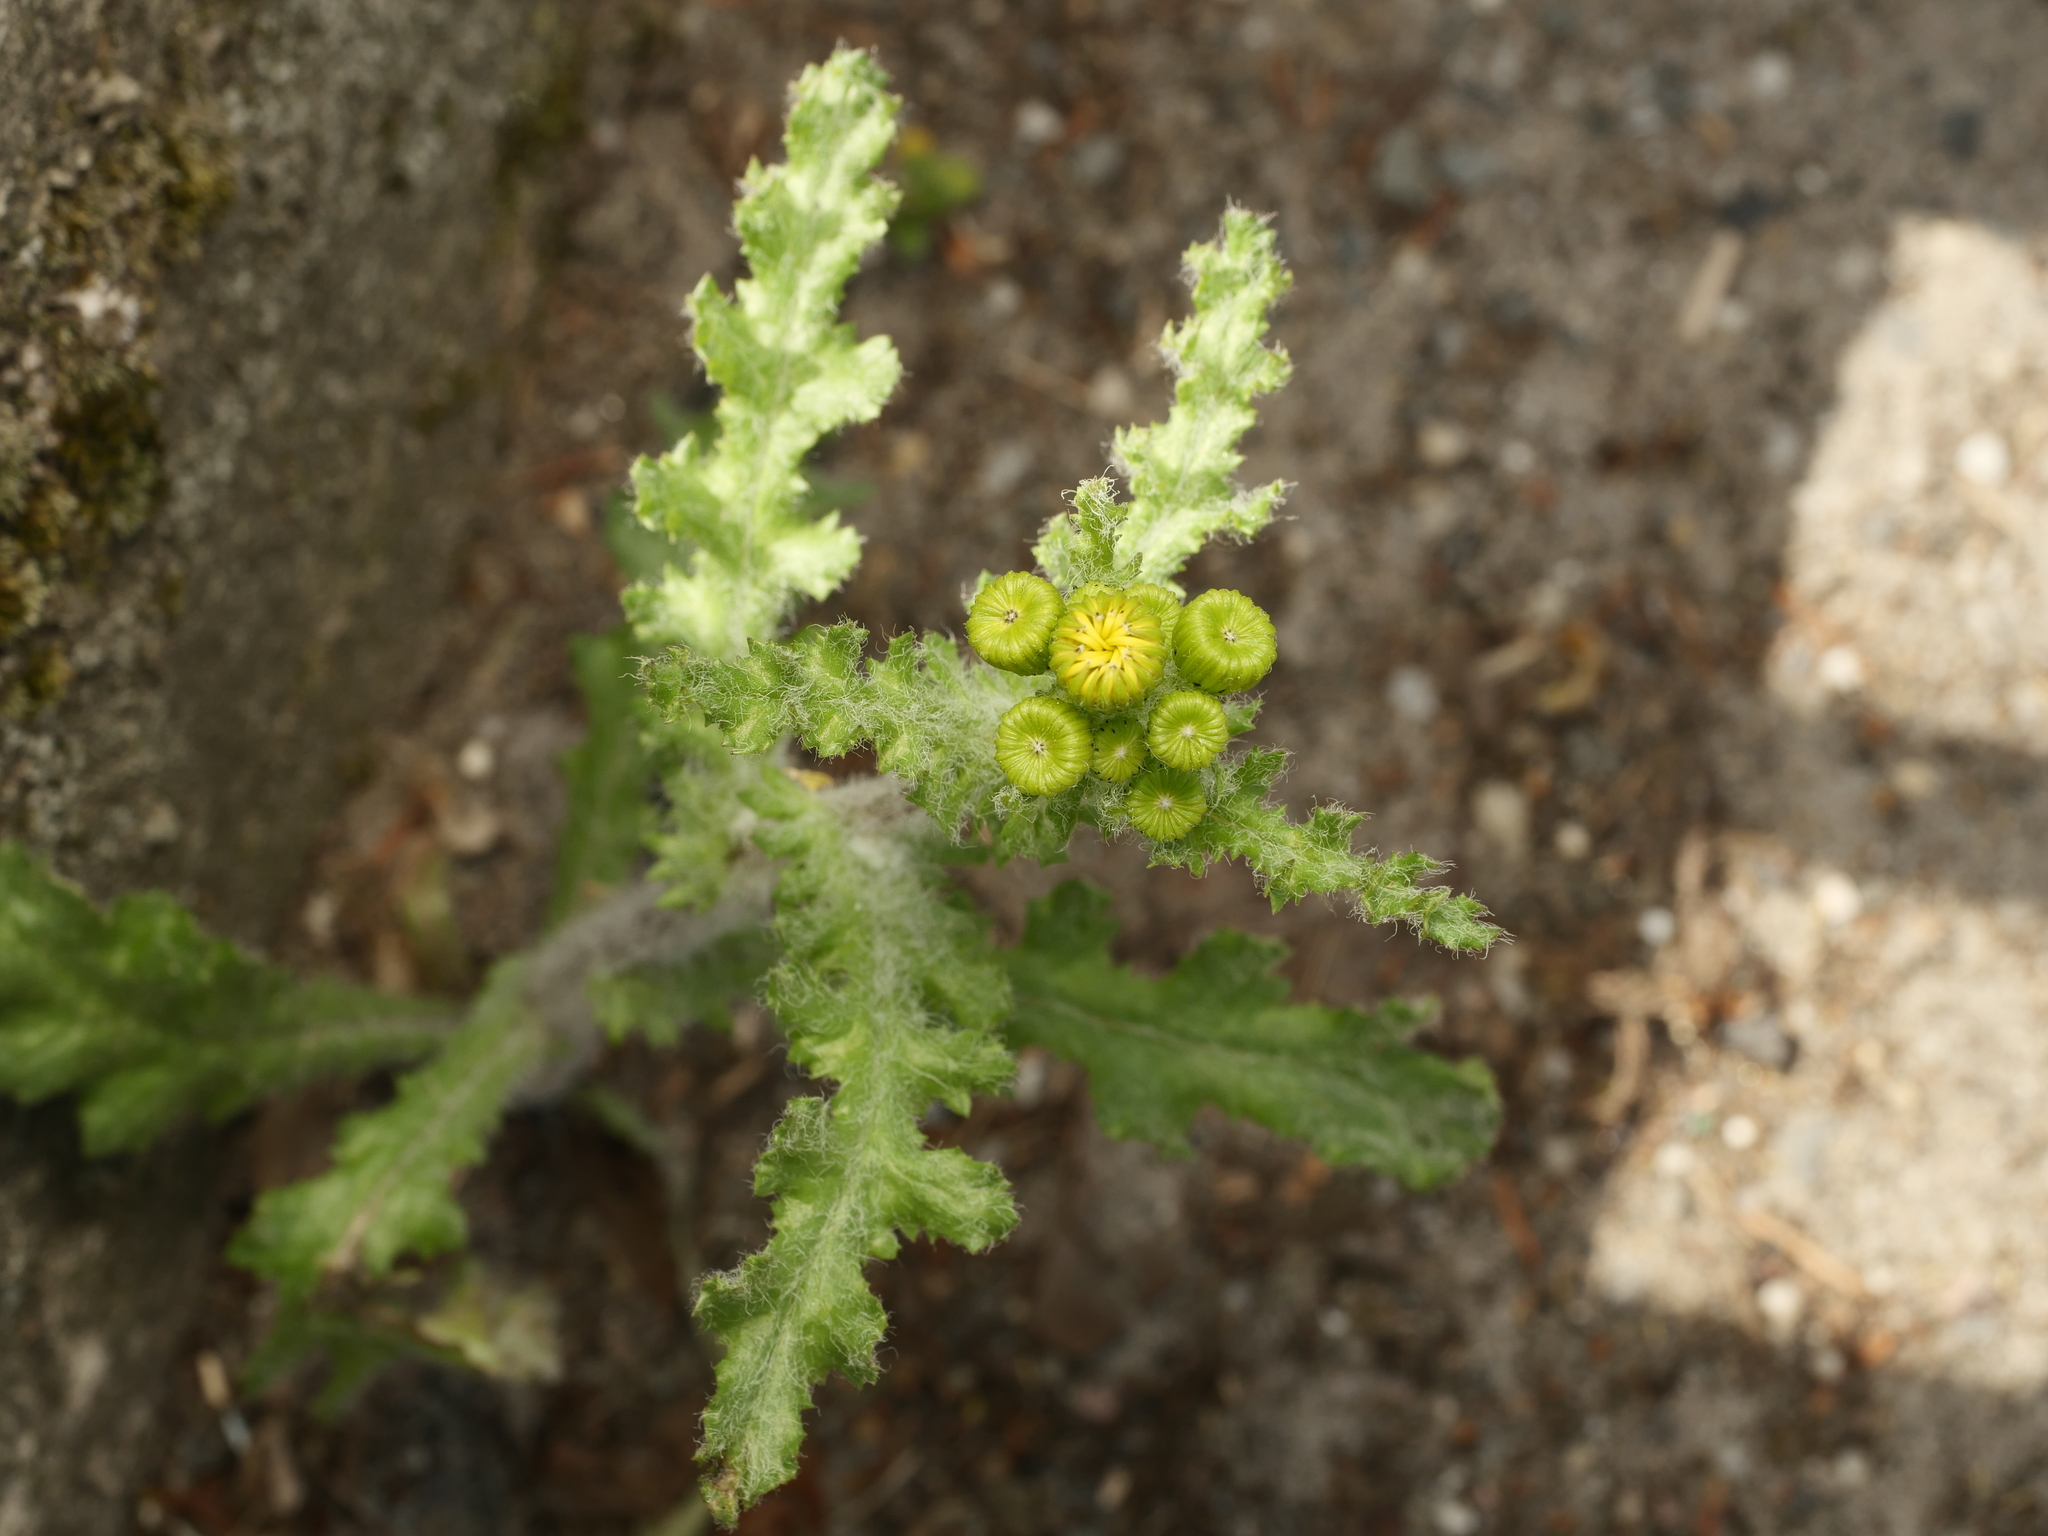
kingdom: Plantae
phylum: Tracheophyta
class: Magnoliopsida
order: Asterales
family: Asteraceae
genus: Senecio
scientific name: Senecio vernalis
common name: Eastern groundsel
